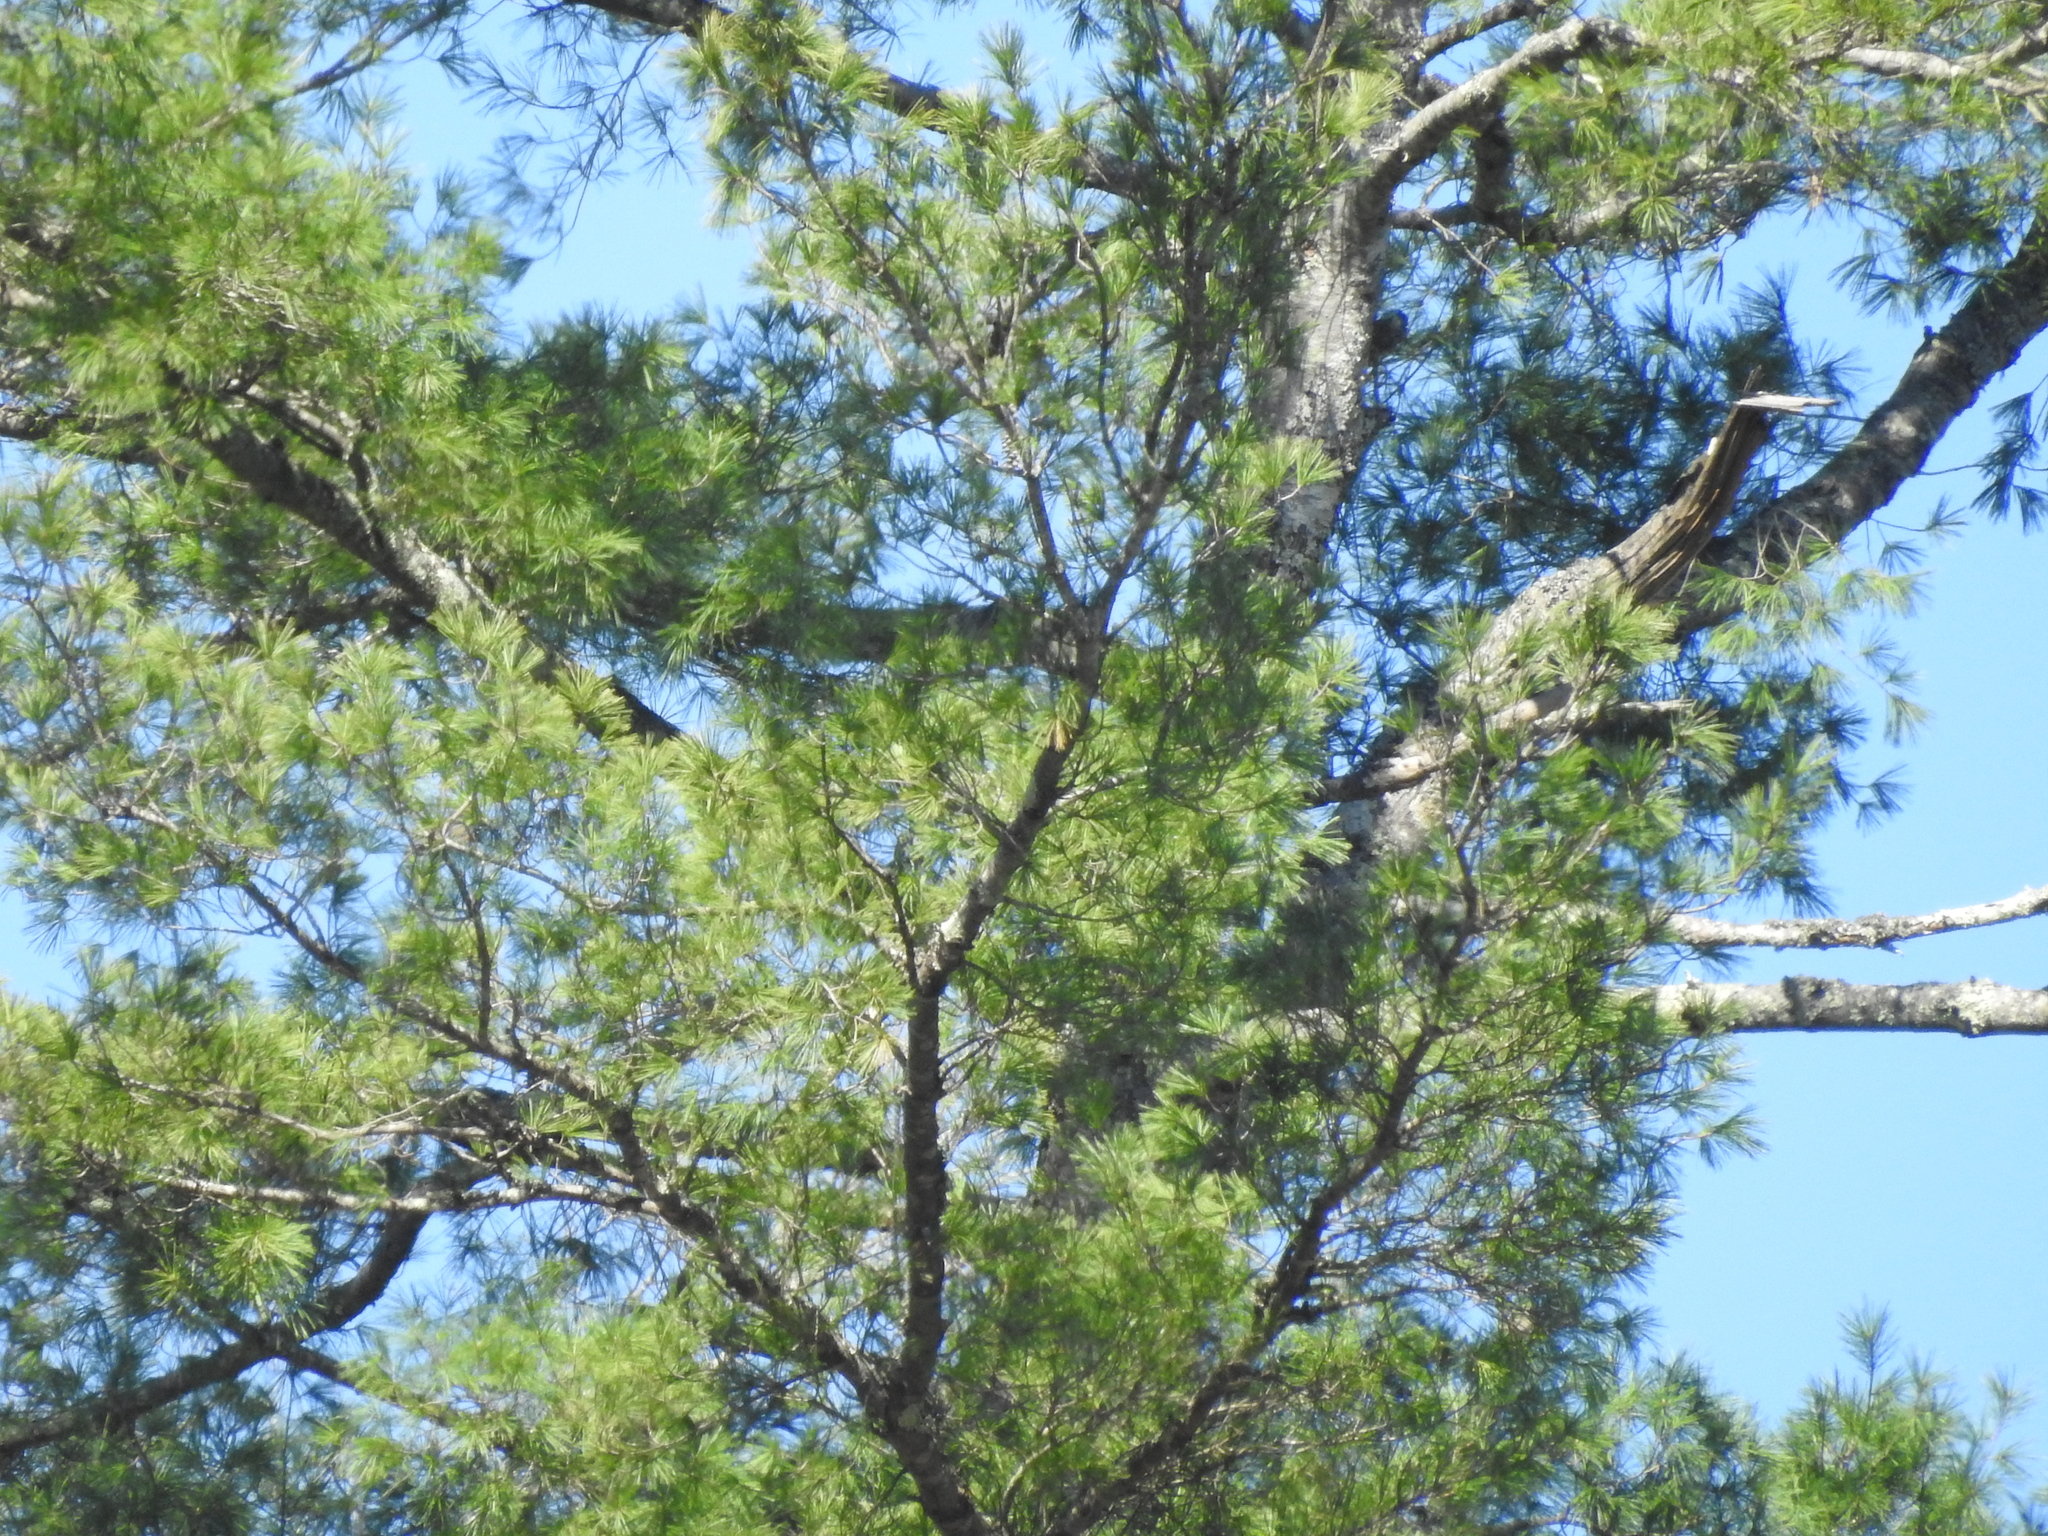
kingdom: Plantae
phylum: Tracheophyta
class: Pinopsida
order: Pinales
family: Pinaceae
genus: Pinus
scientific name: Pinus strobus
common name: Weymouth pine
